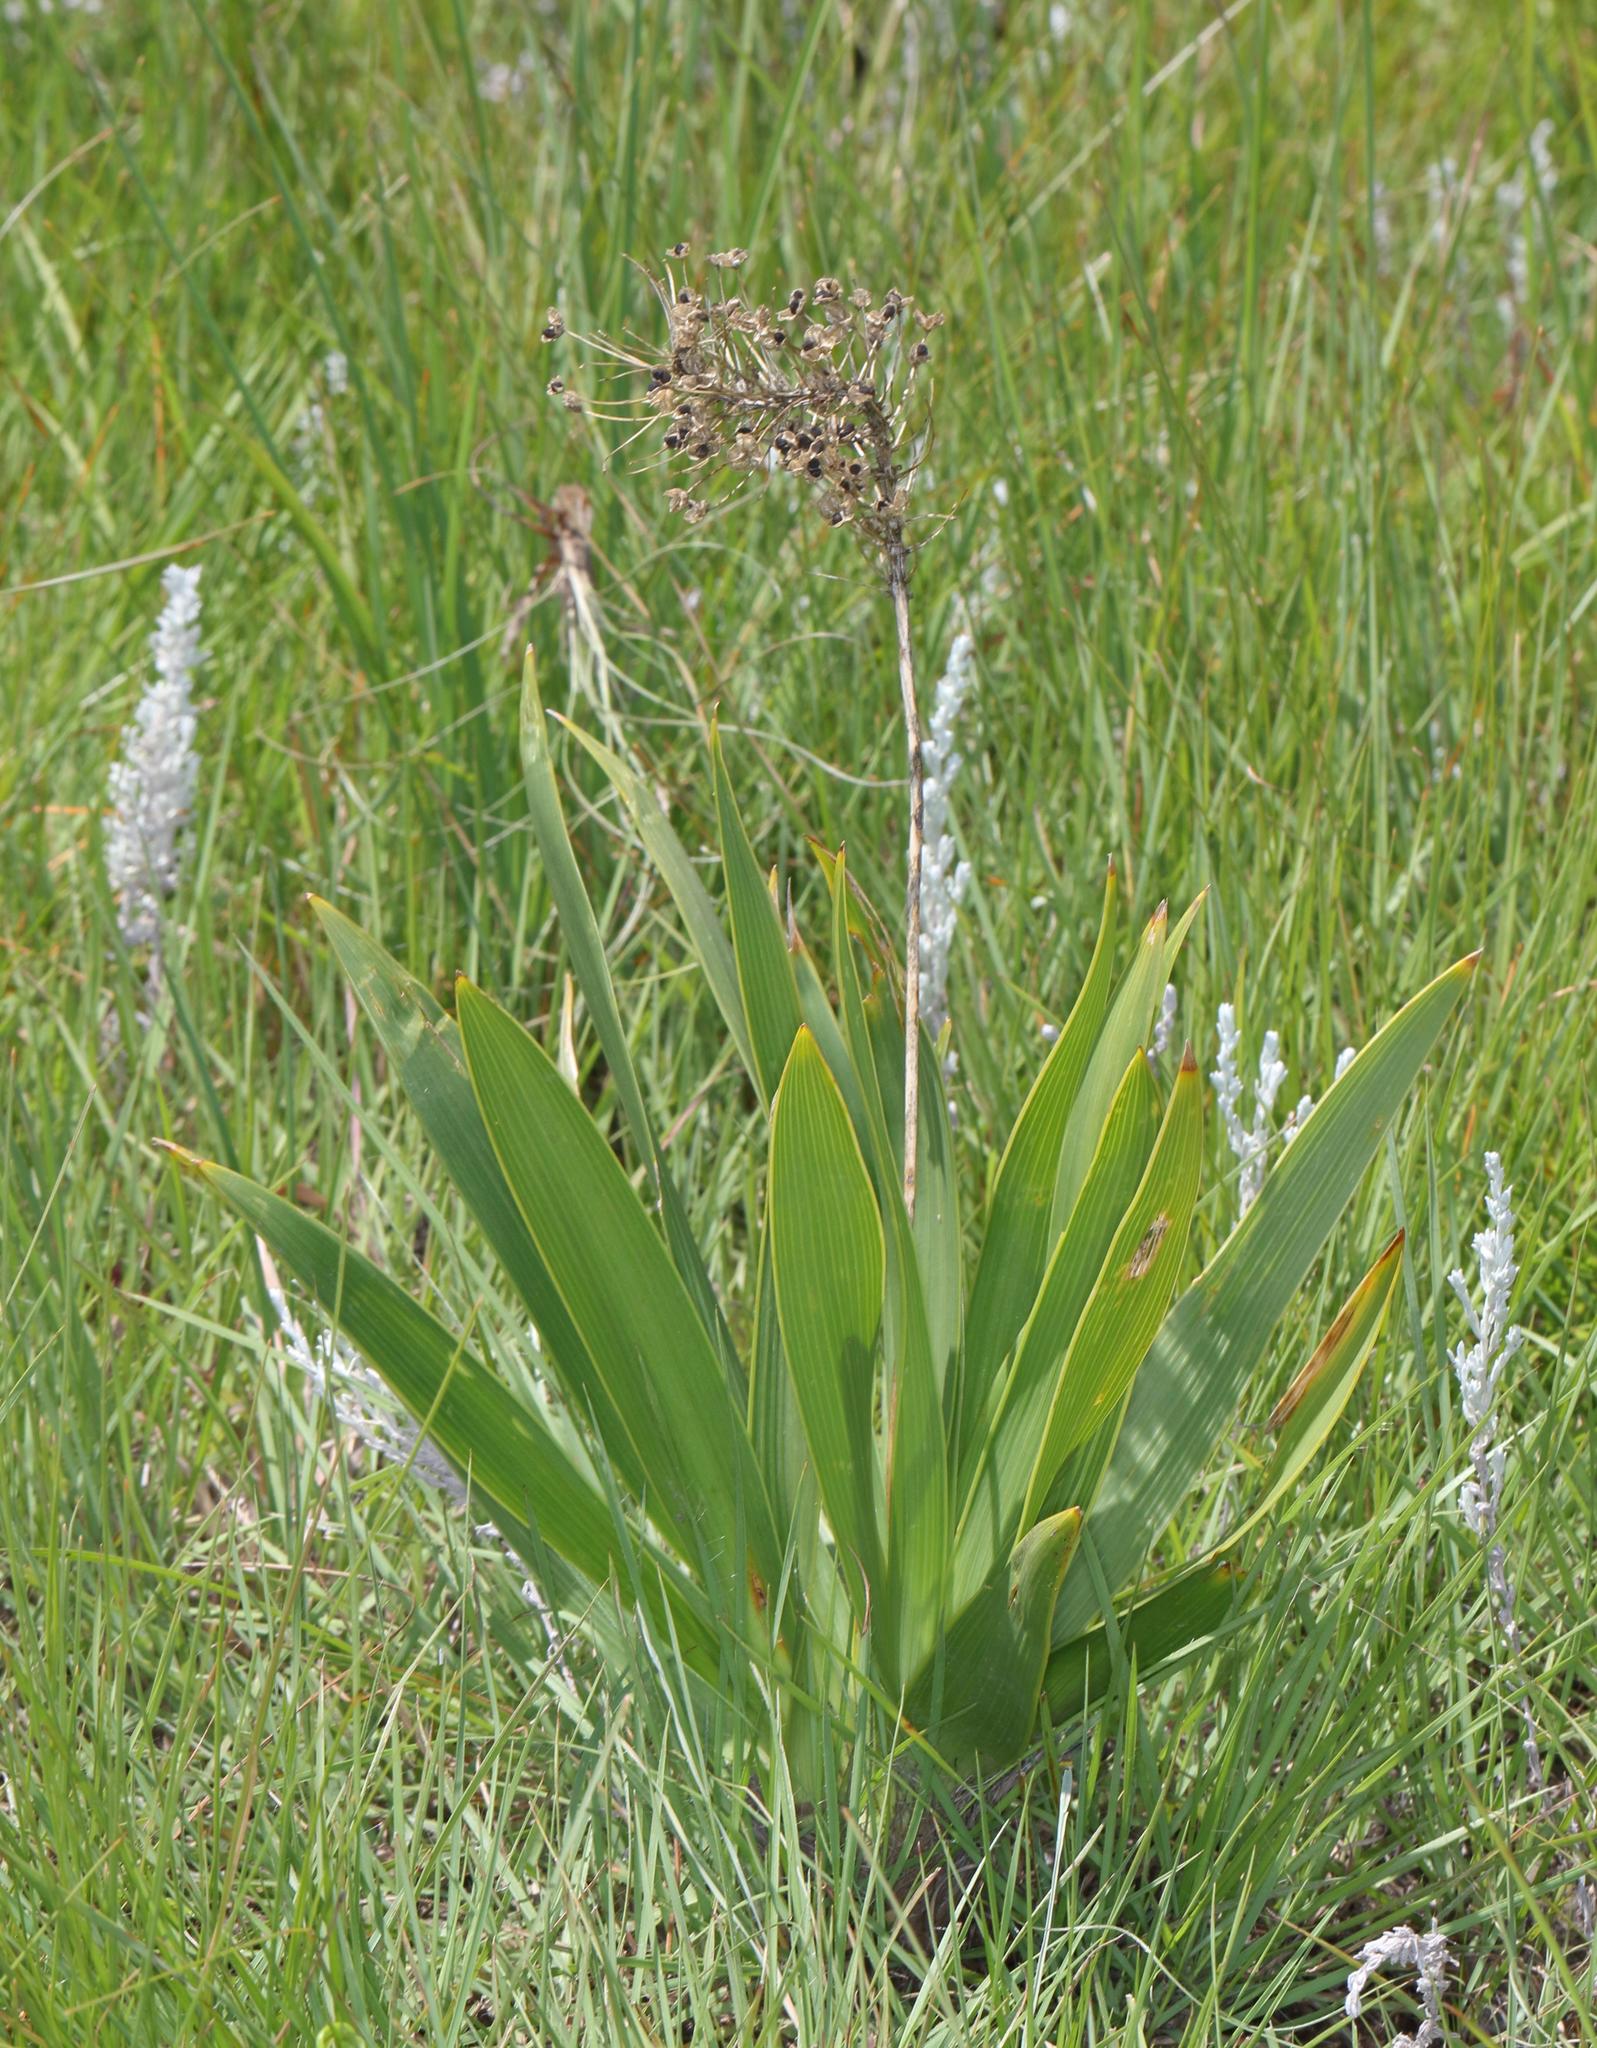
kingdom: Plantae
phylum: Tracheophyta
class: Liliopsida
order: Asparagales
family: Asparagaceae
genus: Schizocarphus
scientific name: Schizocarphus nervosus
